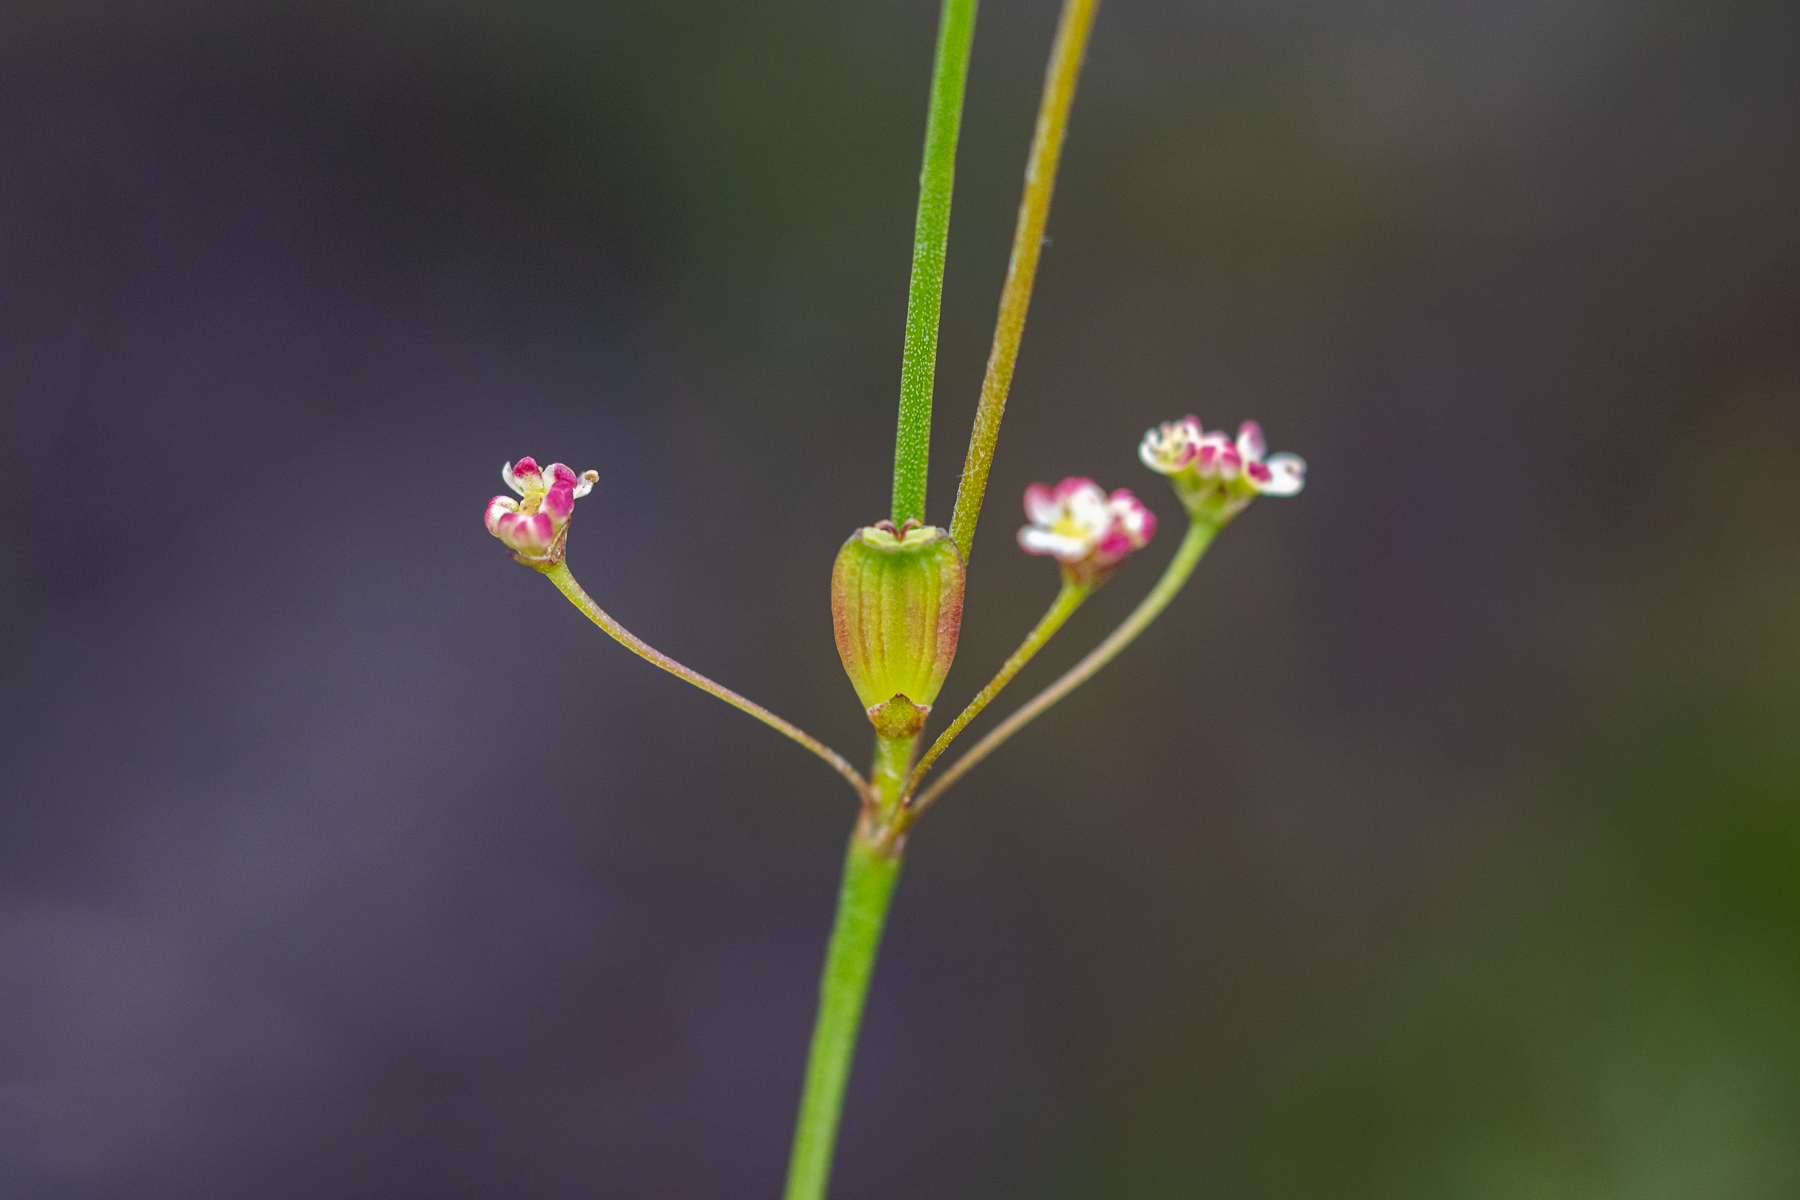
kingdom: Plantae
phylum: Tracheophyta
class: Magnoliopsida
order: Apiales
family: Apiaceae
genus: Centella
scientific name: Centella macrocarpa
